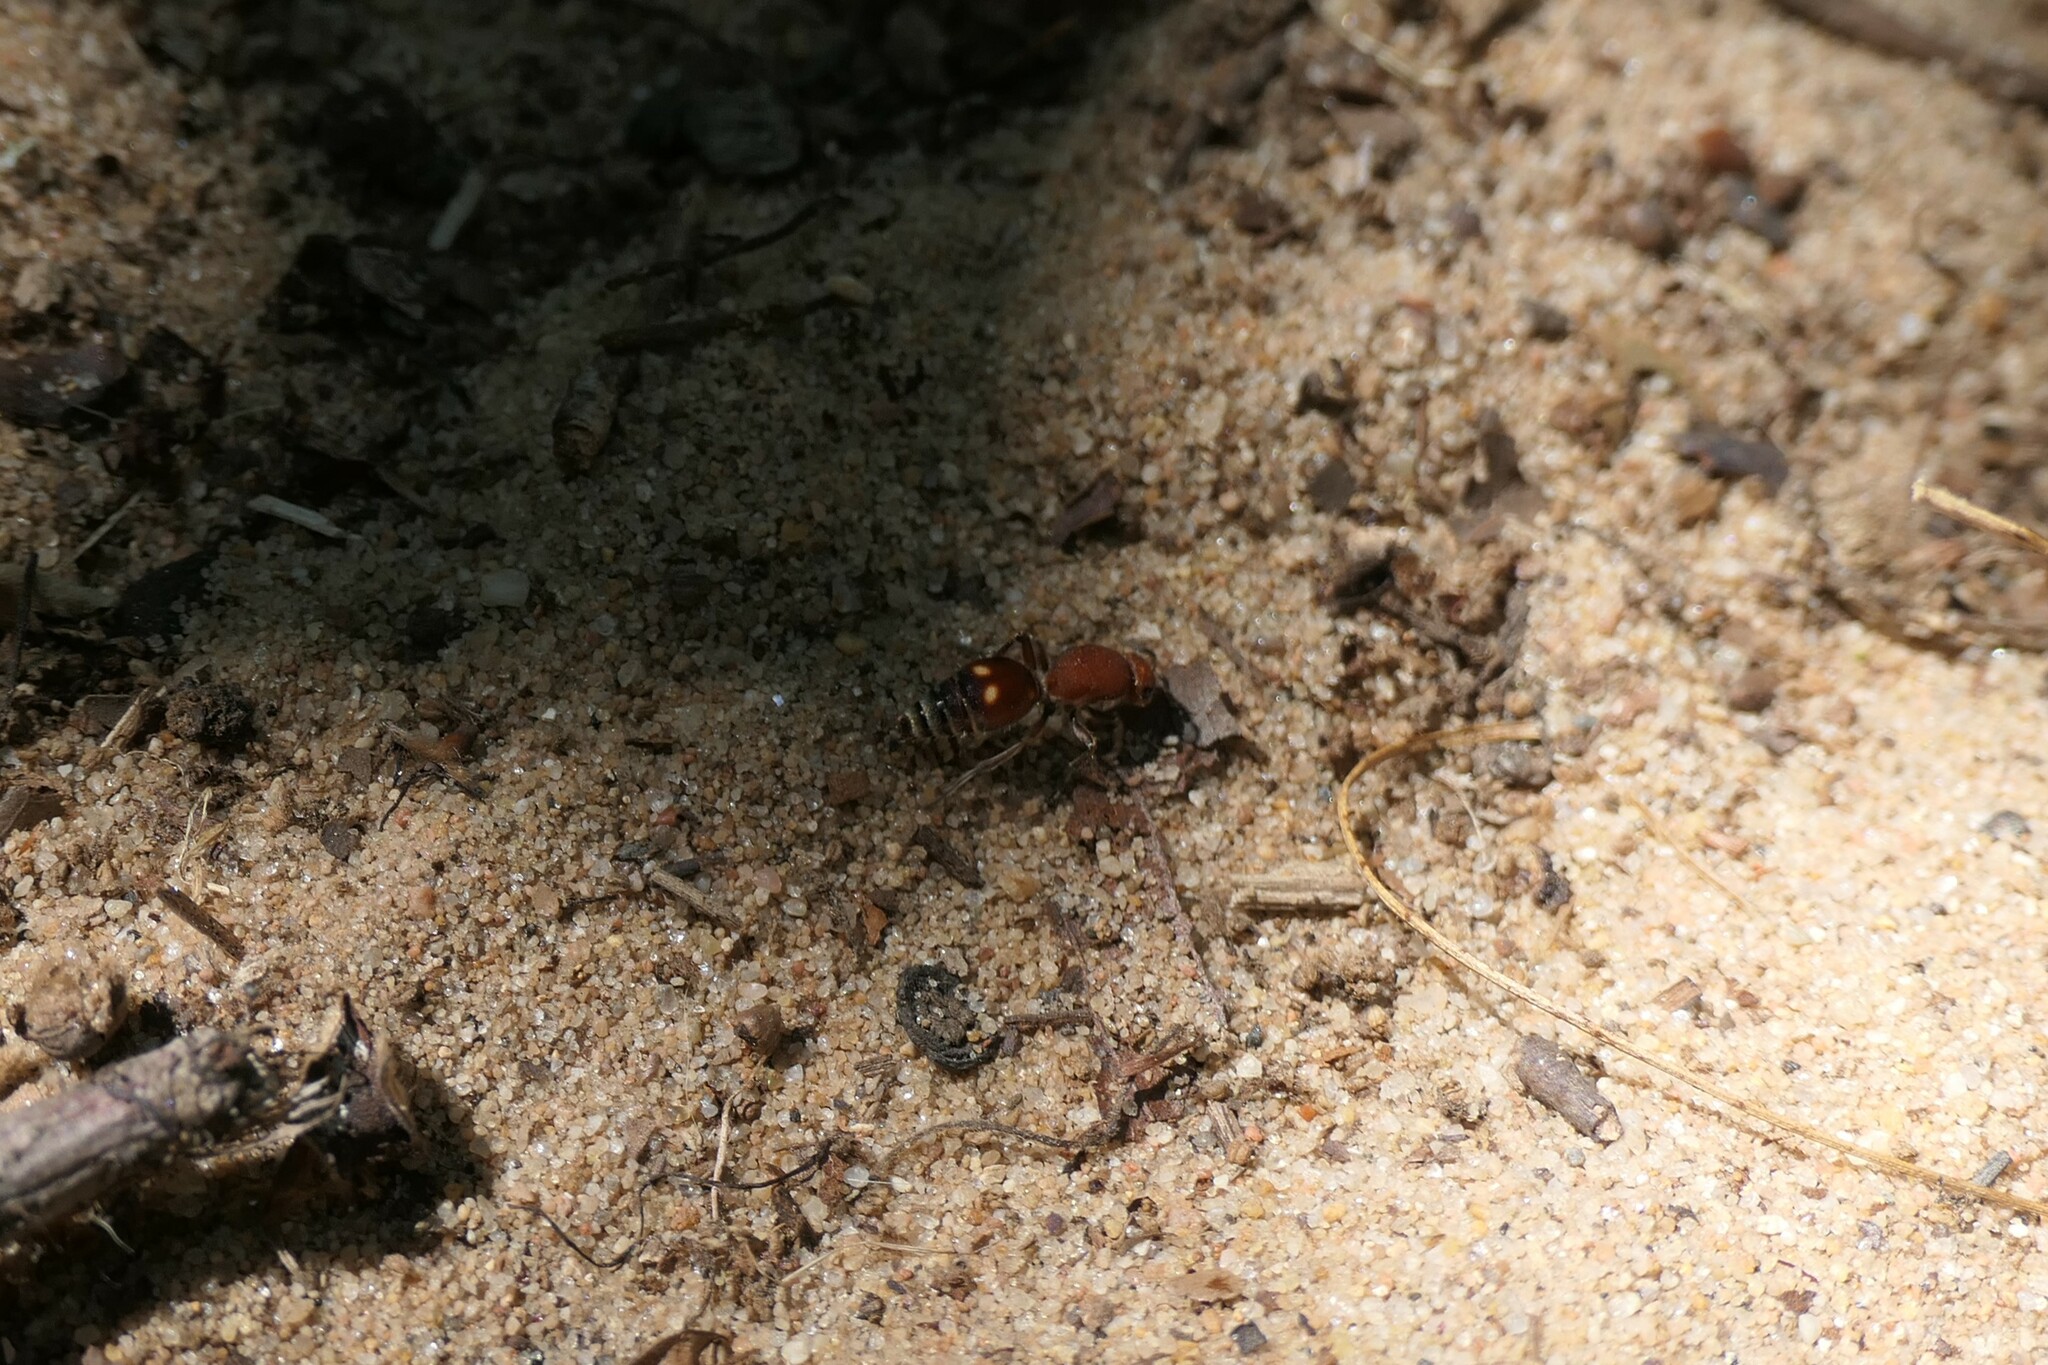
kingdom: Animalia
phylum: Arthropoda
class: Insecta
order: Hymenoptera
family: Mutillidae
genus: Dasymutilla
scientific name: Dasymutilla
